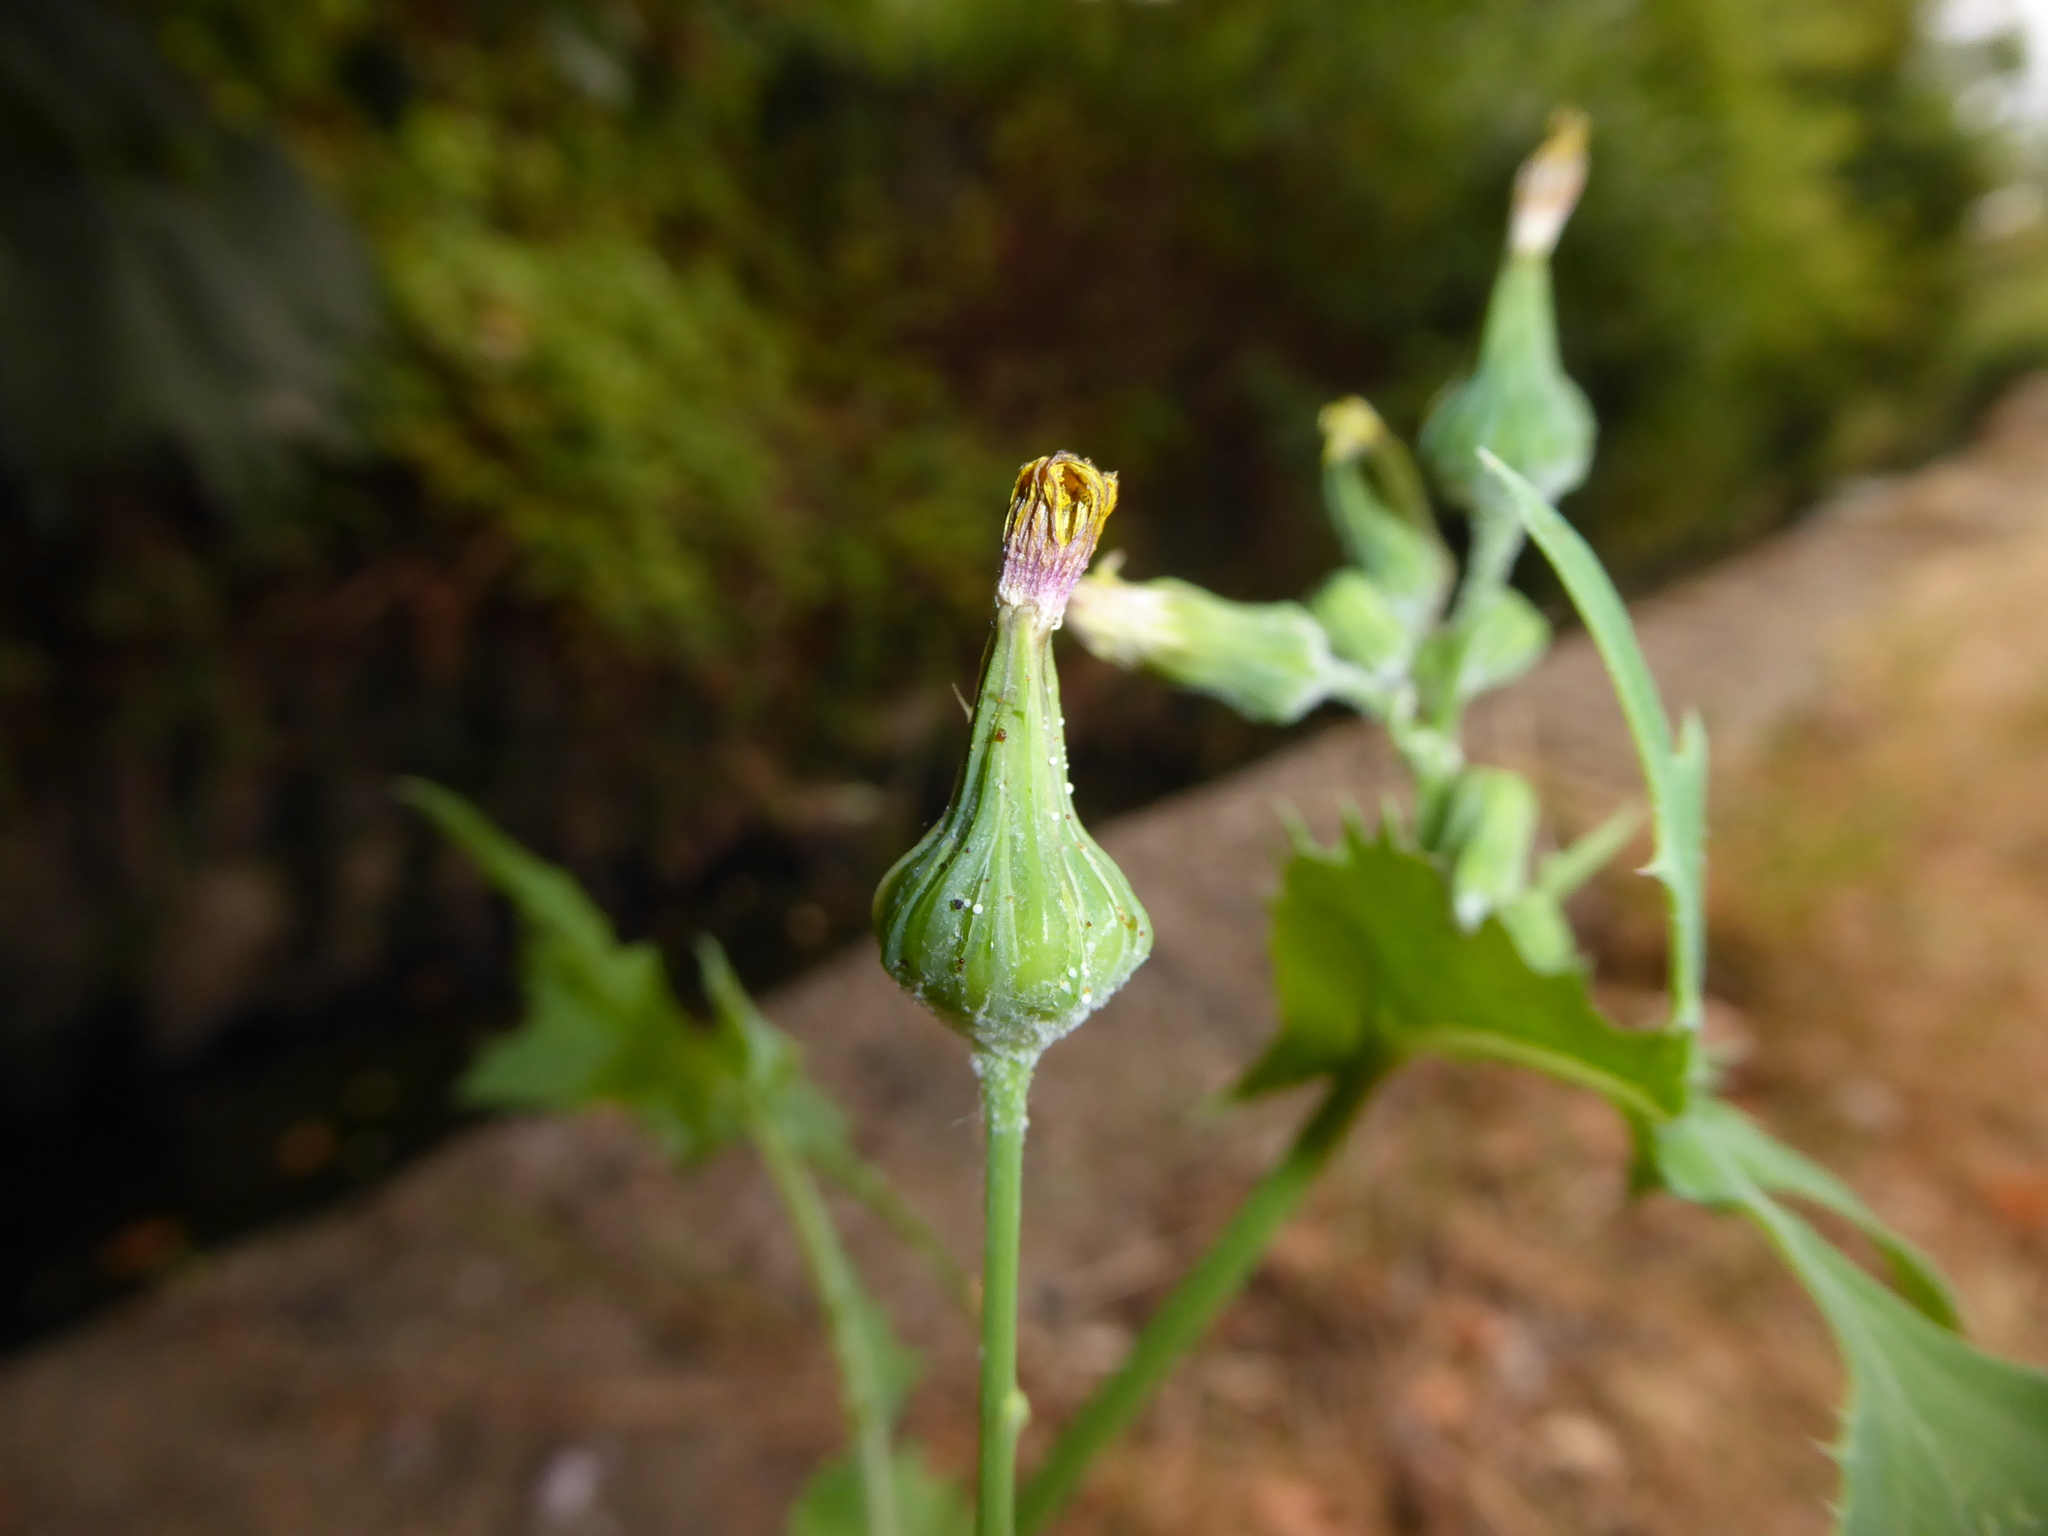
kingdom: Plantae
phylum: Tracheophyta
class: Magnoliopsida
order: Asterales
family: Asteraceae
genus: Sonchus
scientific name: Sonchus oleraceus
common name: Common sowthistle
